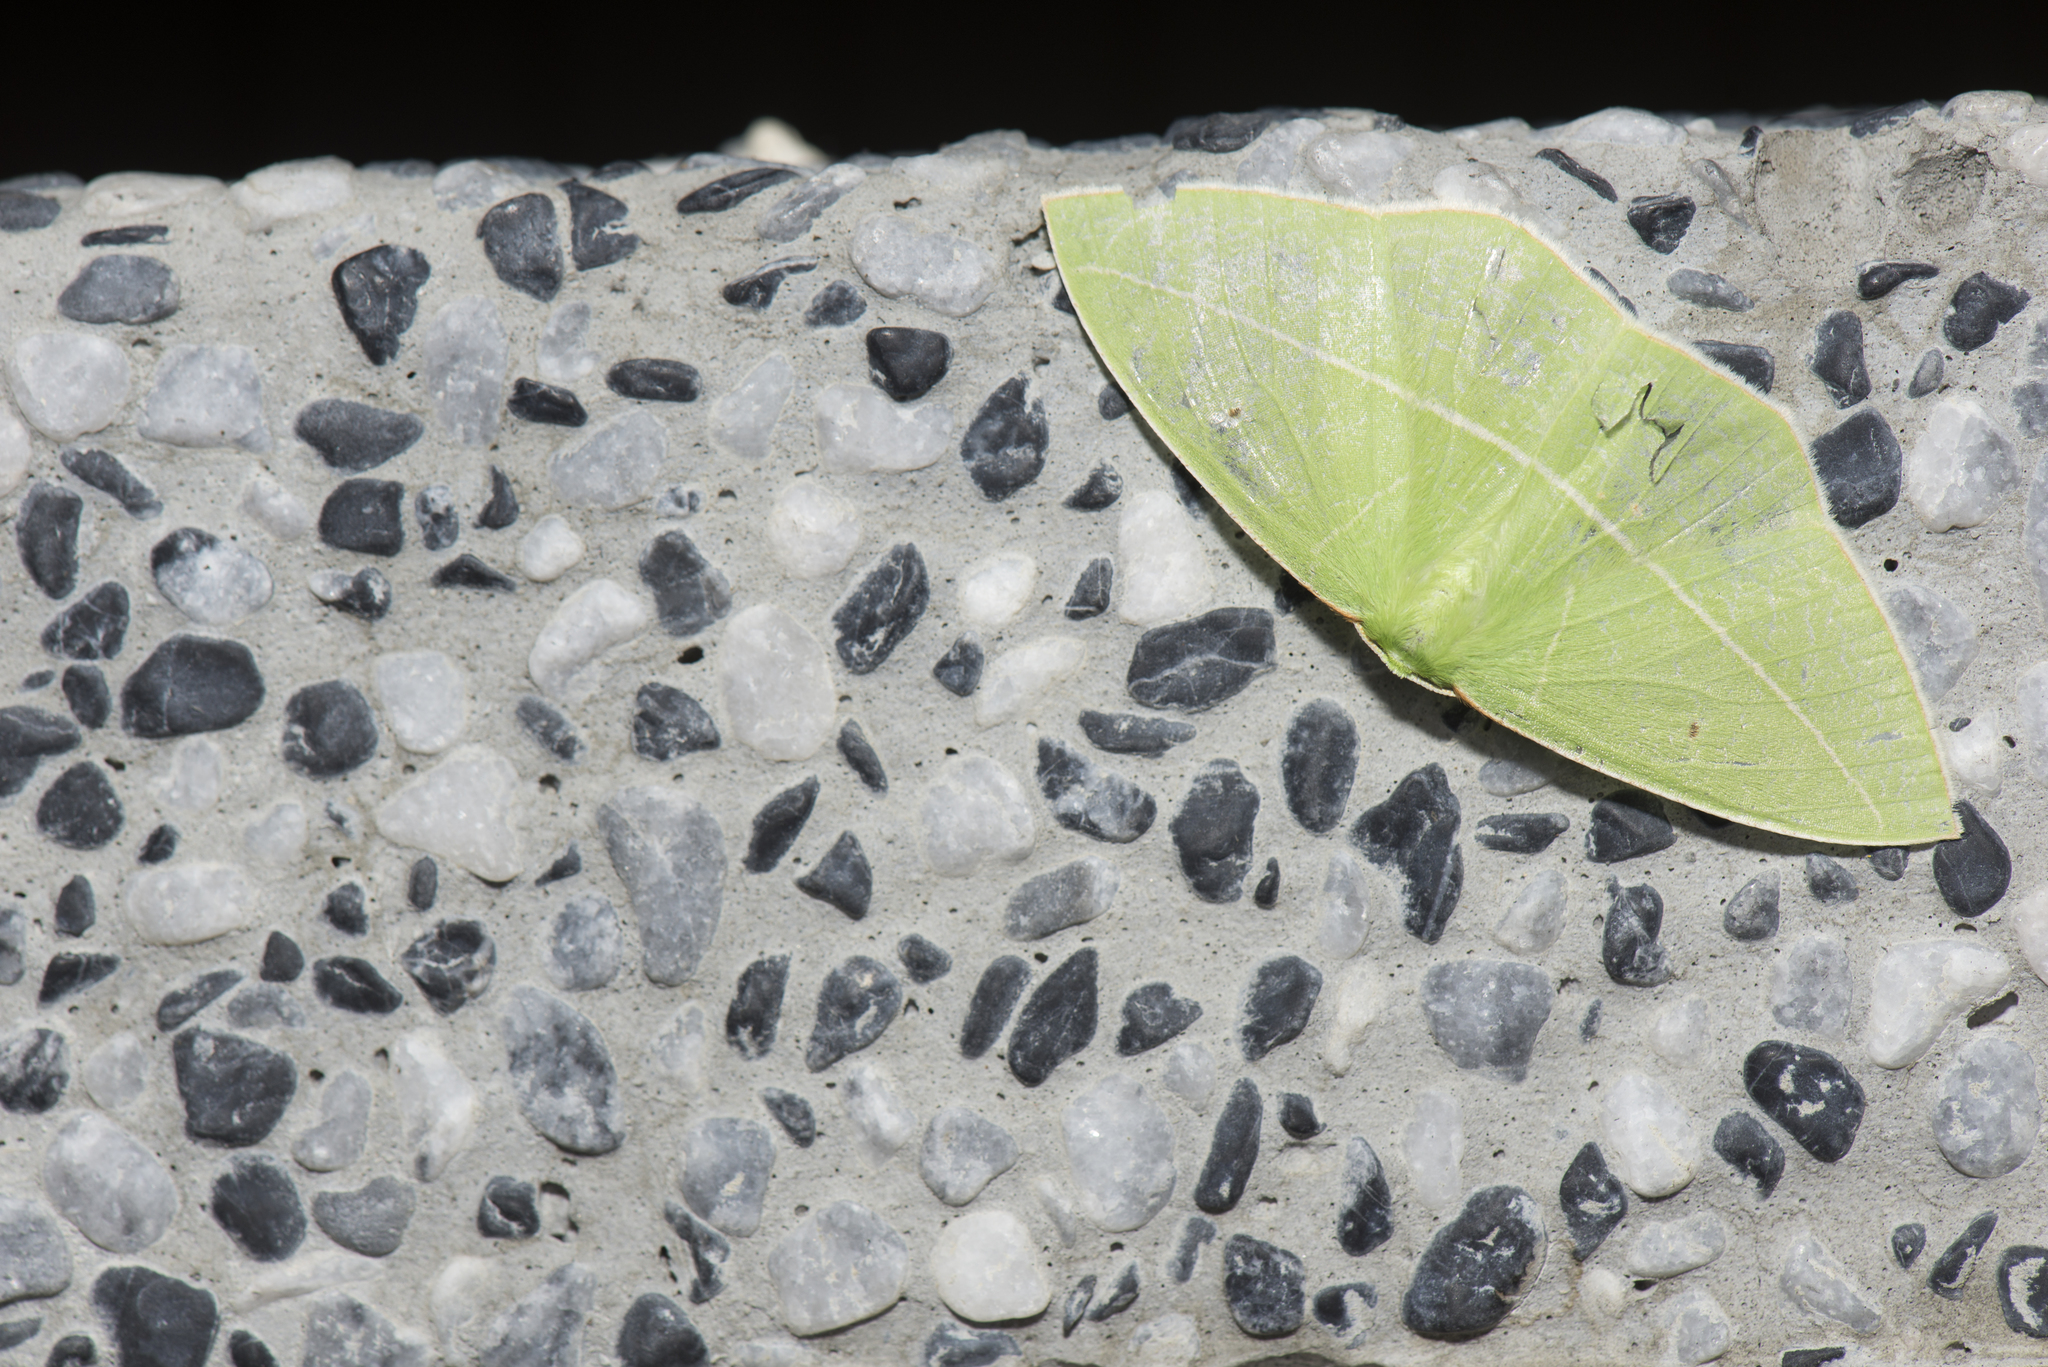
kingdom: Animalia
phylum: Arthropoda
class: Insecta
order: Lepidoptera
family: Geometridae
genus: Tanaoctenia
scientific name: Tanaoctenia haliaria
